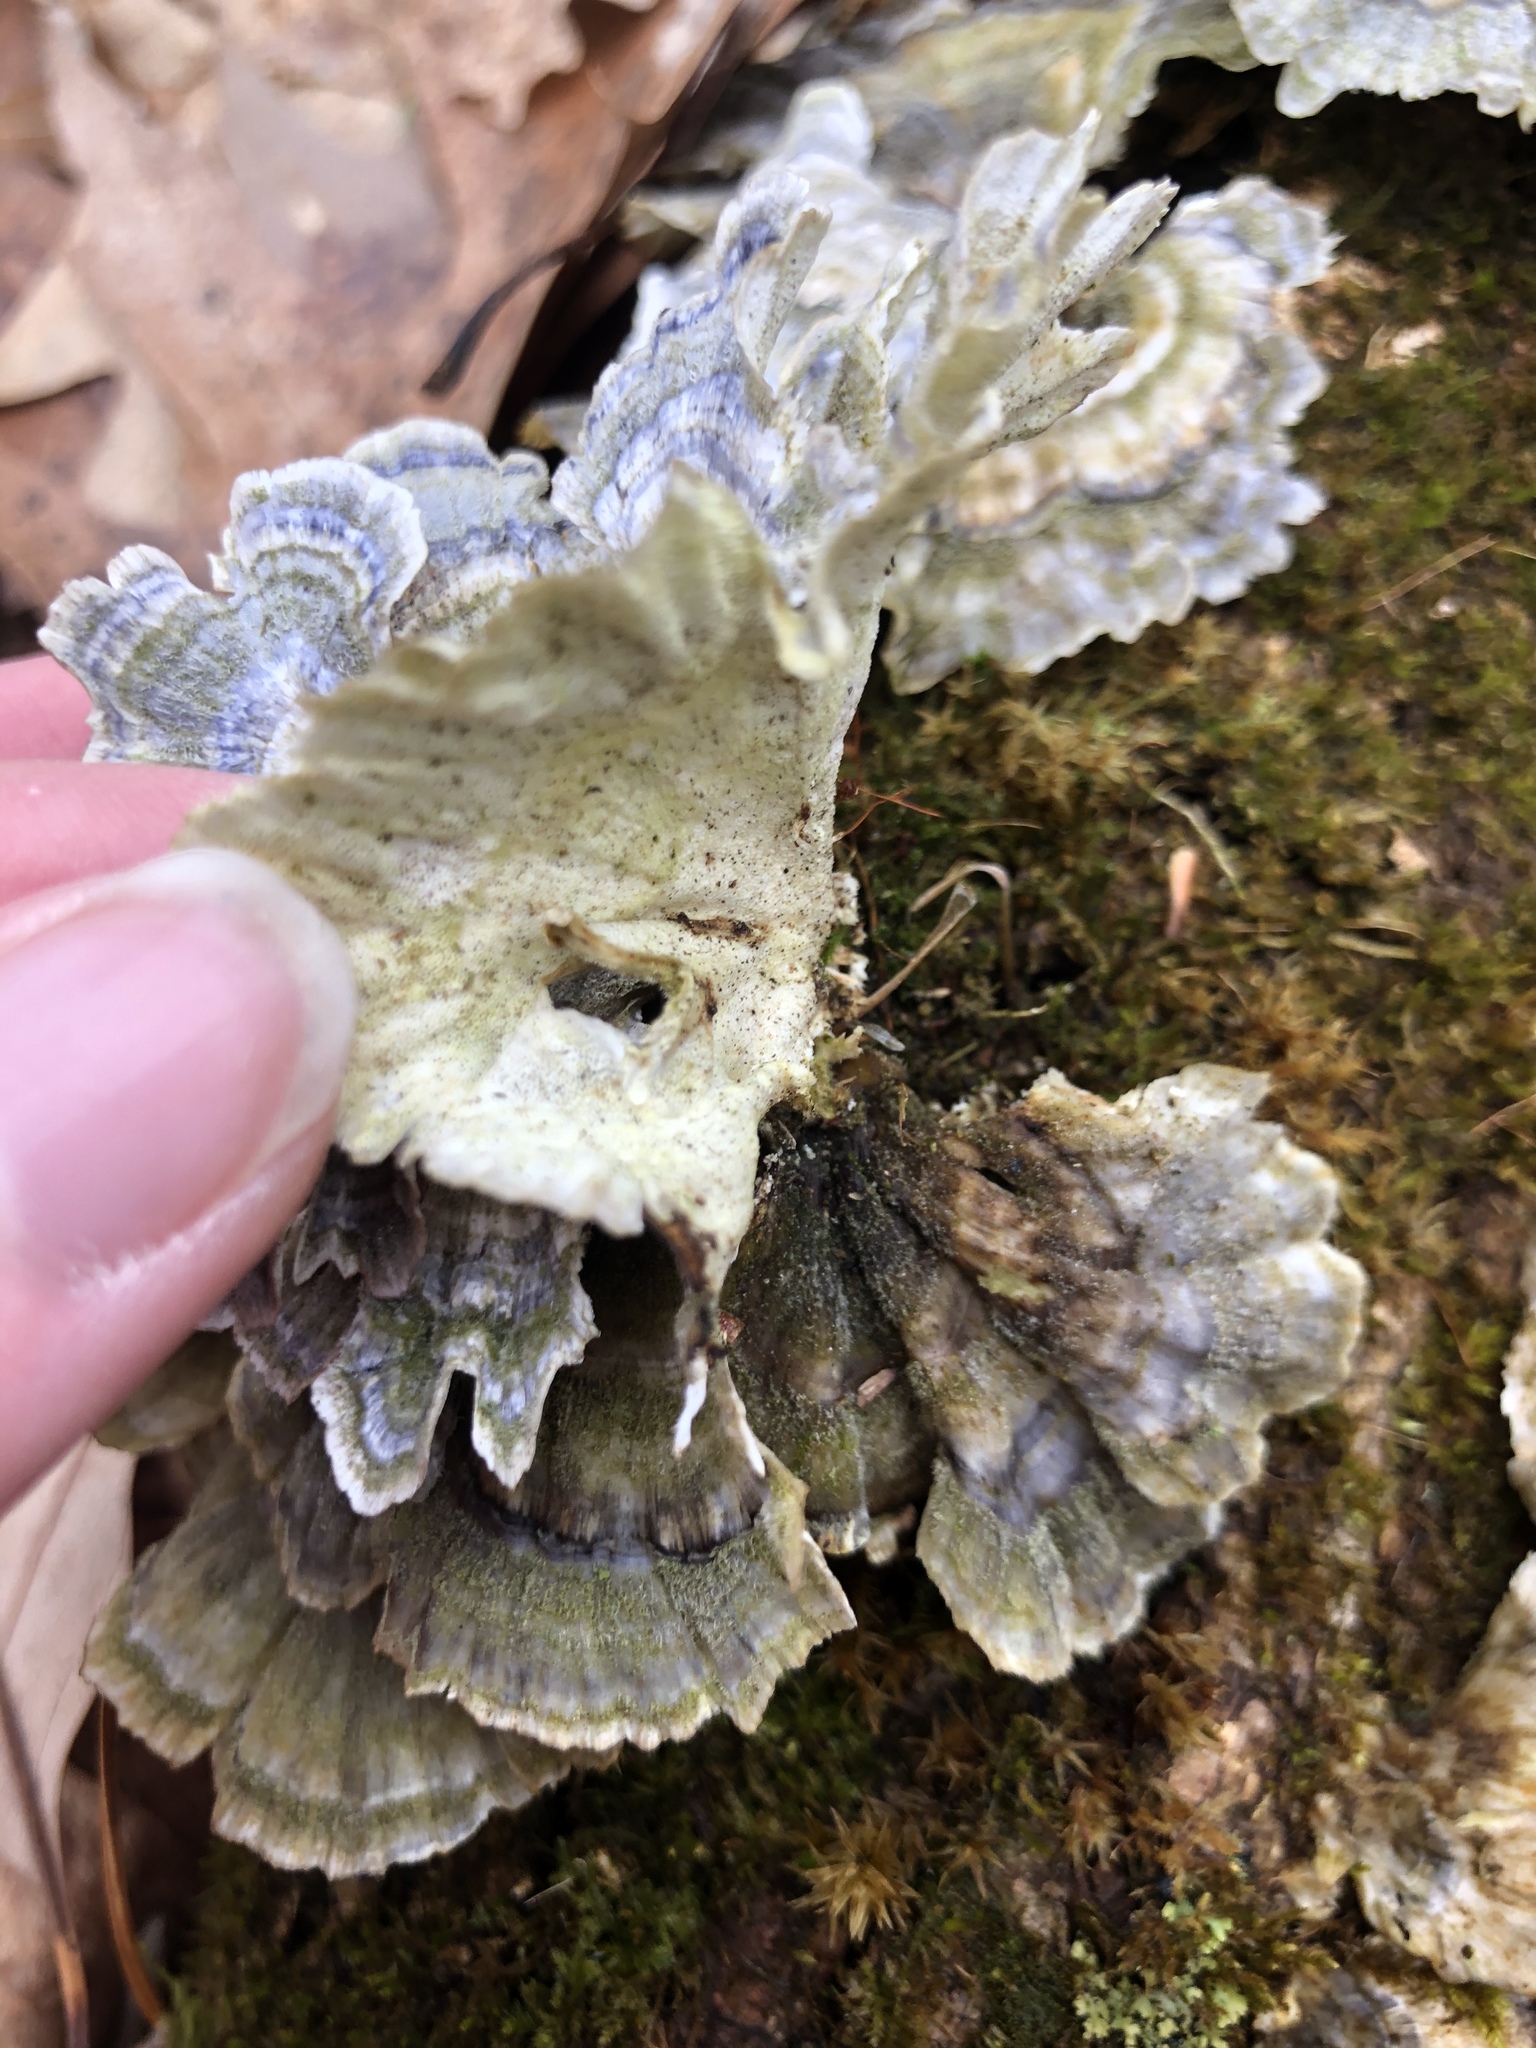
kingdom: Fungi
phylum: Basidiomycota
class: Agaricomycetes
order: Polyporales
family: Polyporaceae
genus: Trametes
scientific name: Trametes versicolor
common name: Turkeytail
